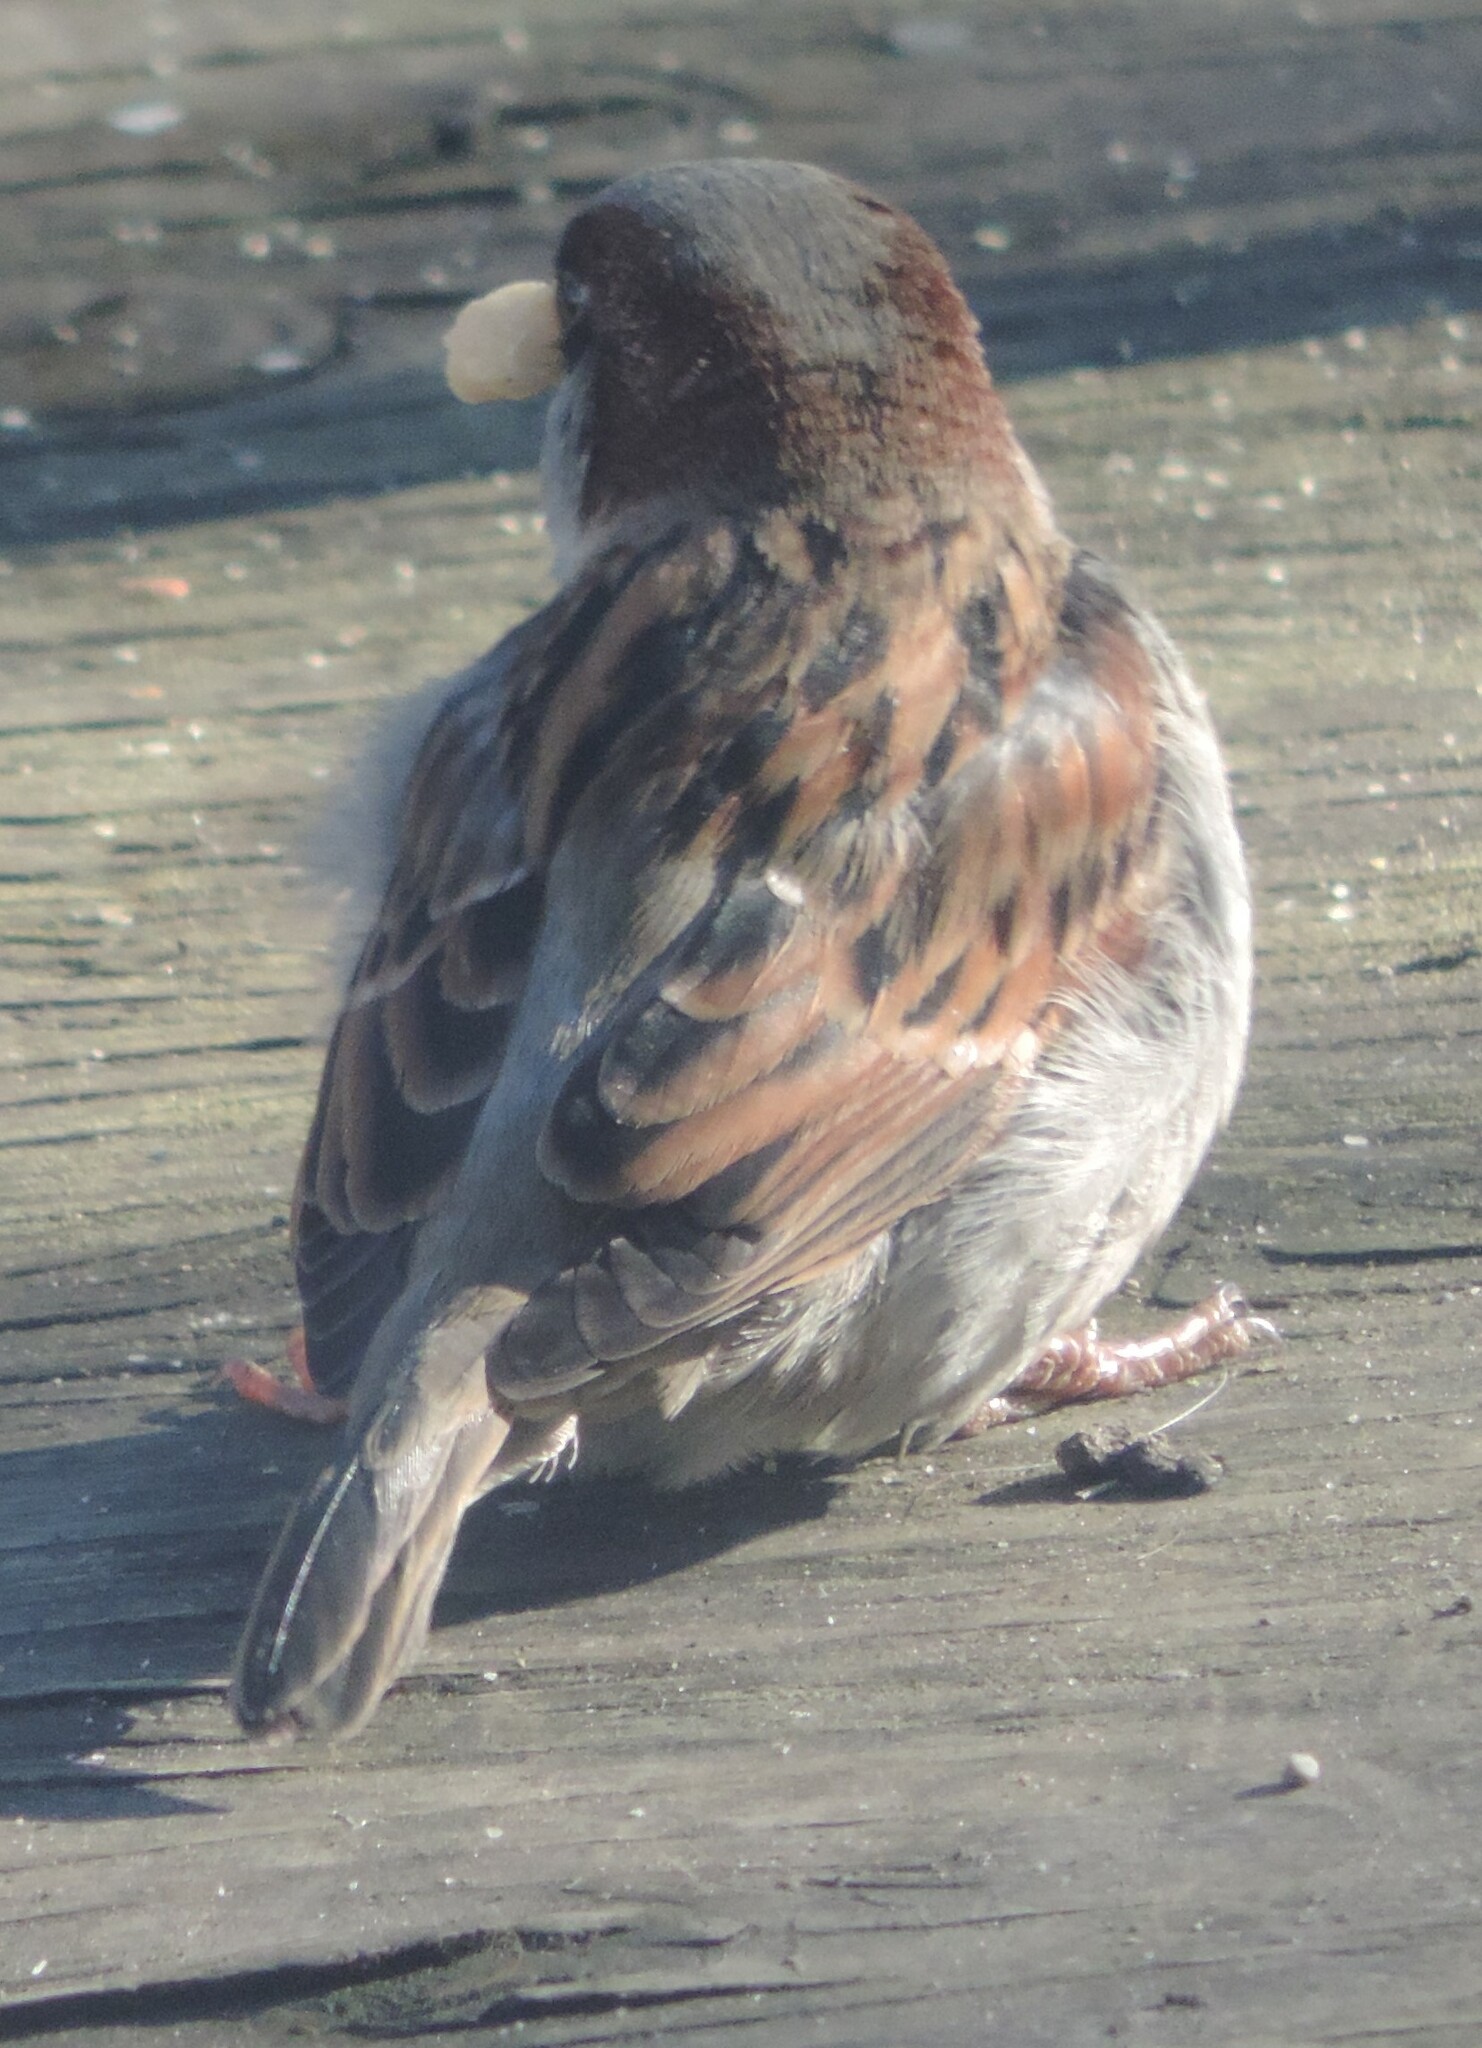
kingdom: Animalia
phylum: Chordata
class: Aves
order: Passeriformes
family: Passeridae
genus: Passer
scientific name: Passer domesticus
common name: House sparrow
